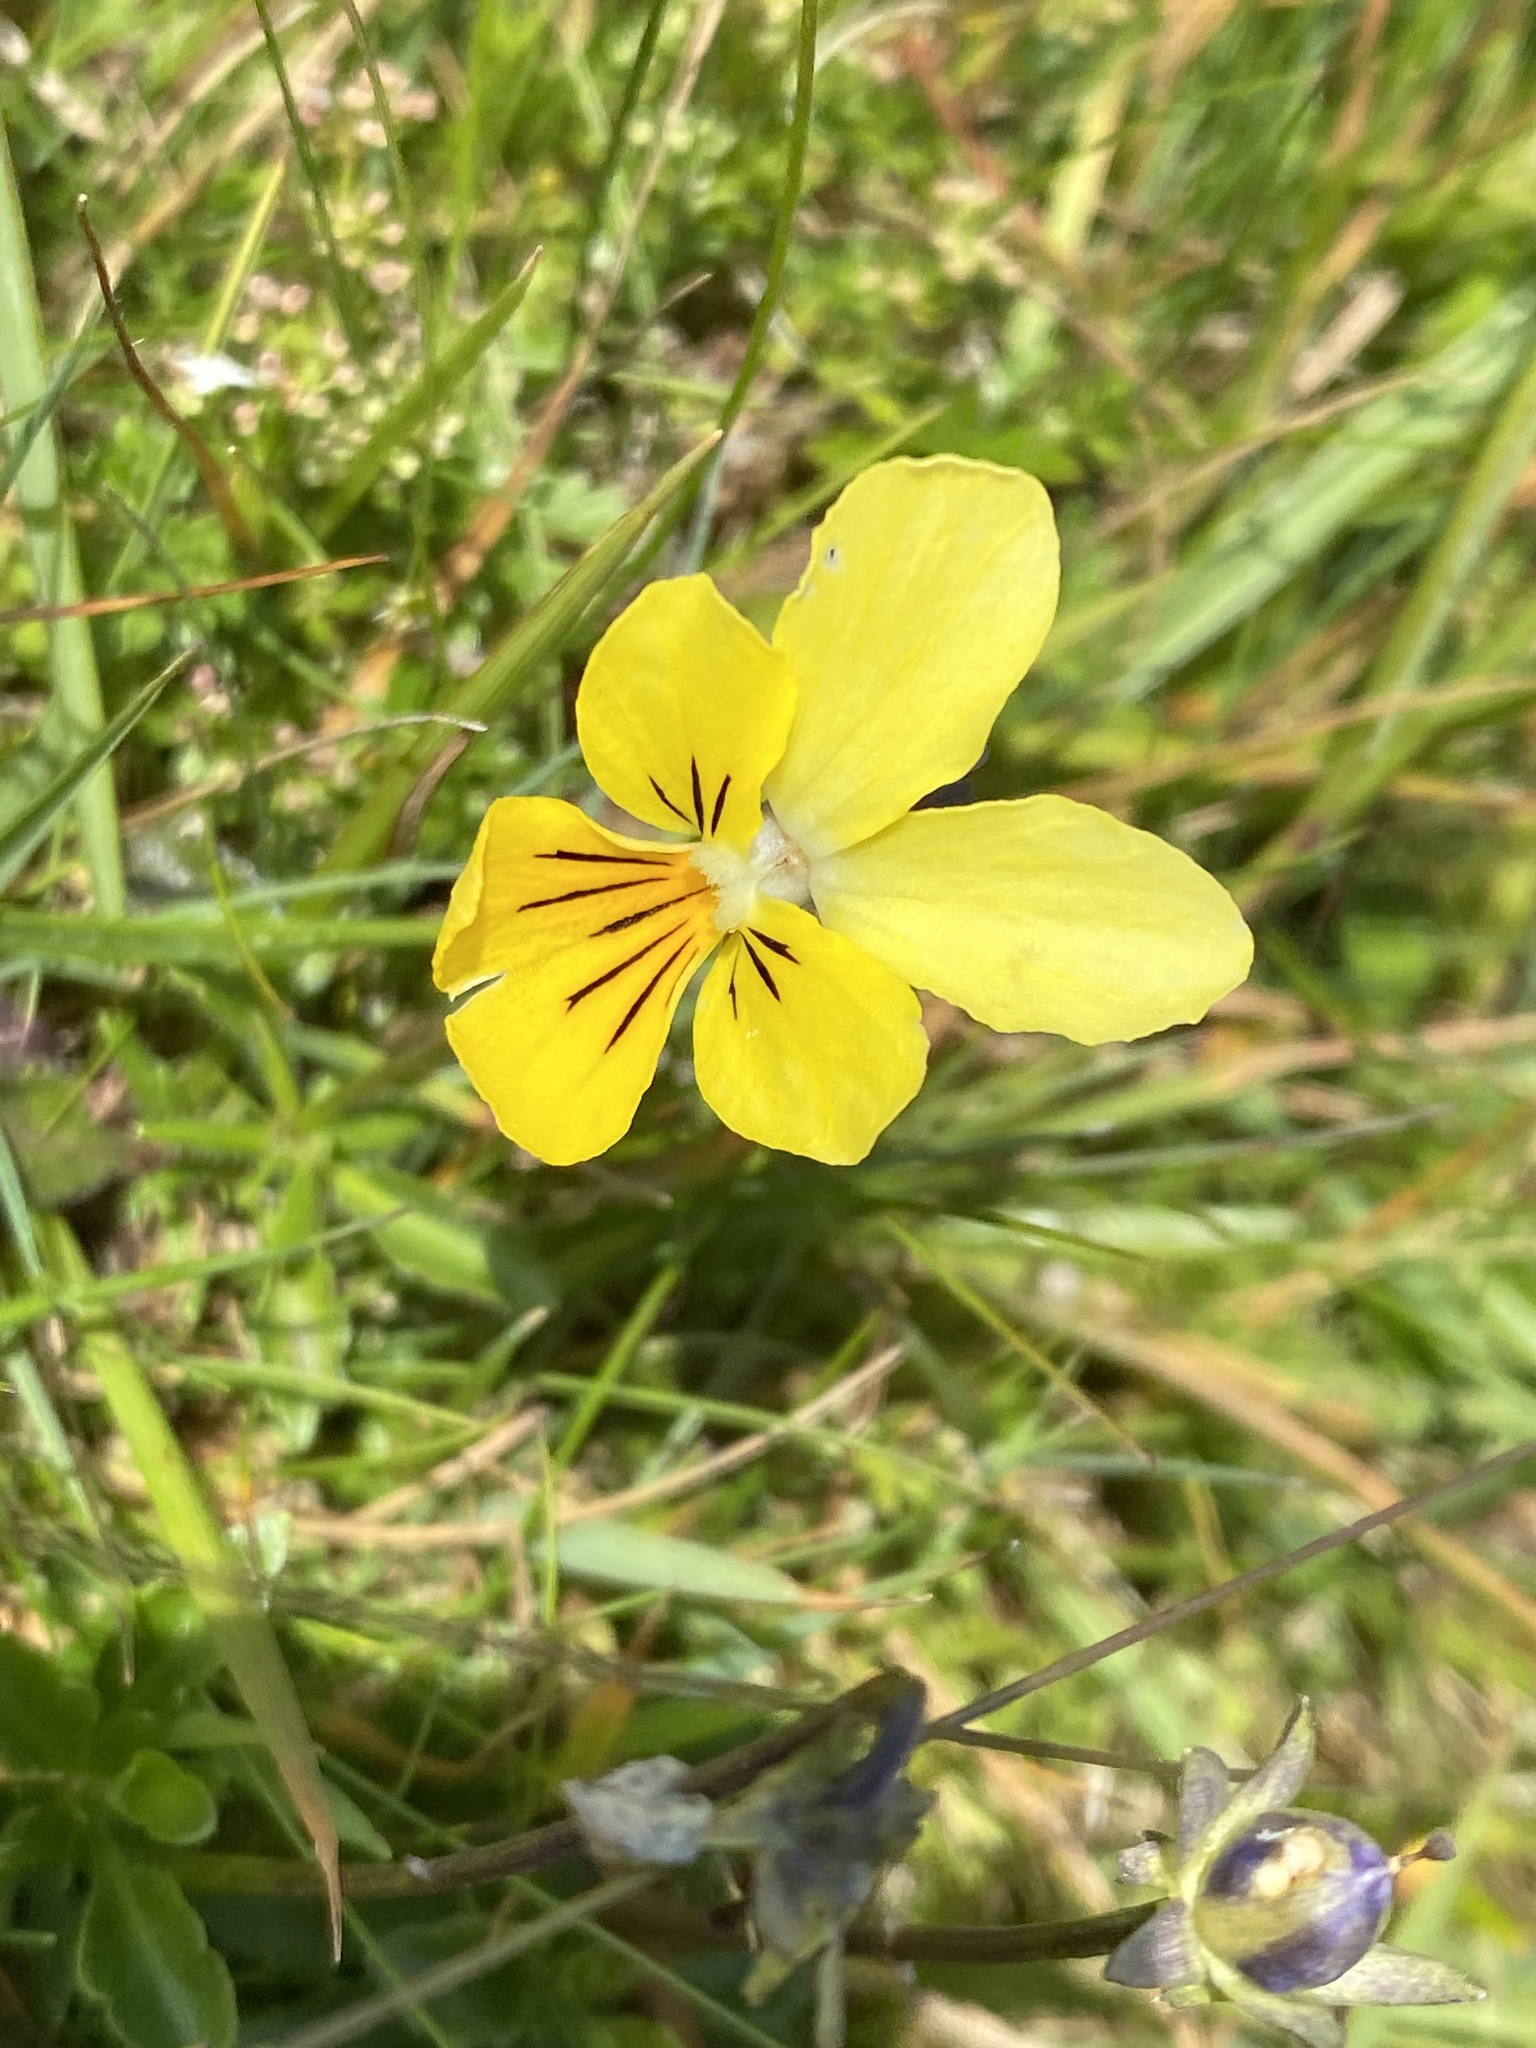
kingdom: Plantae
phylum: Tracheophyta
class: Magnoliopsida
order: Malpighiales
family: Violaceae
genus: Viola
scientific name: Viola lutea
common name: Mountain pansy
